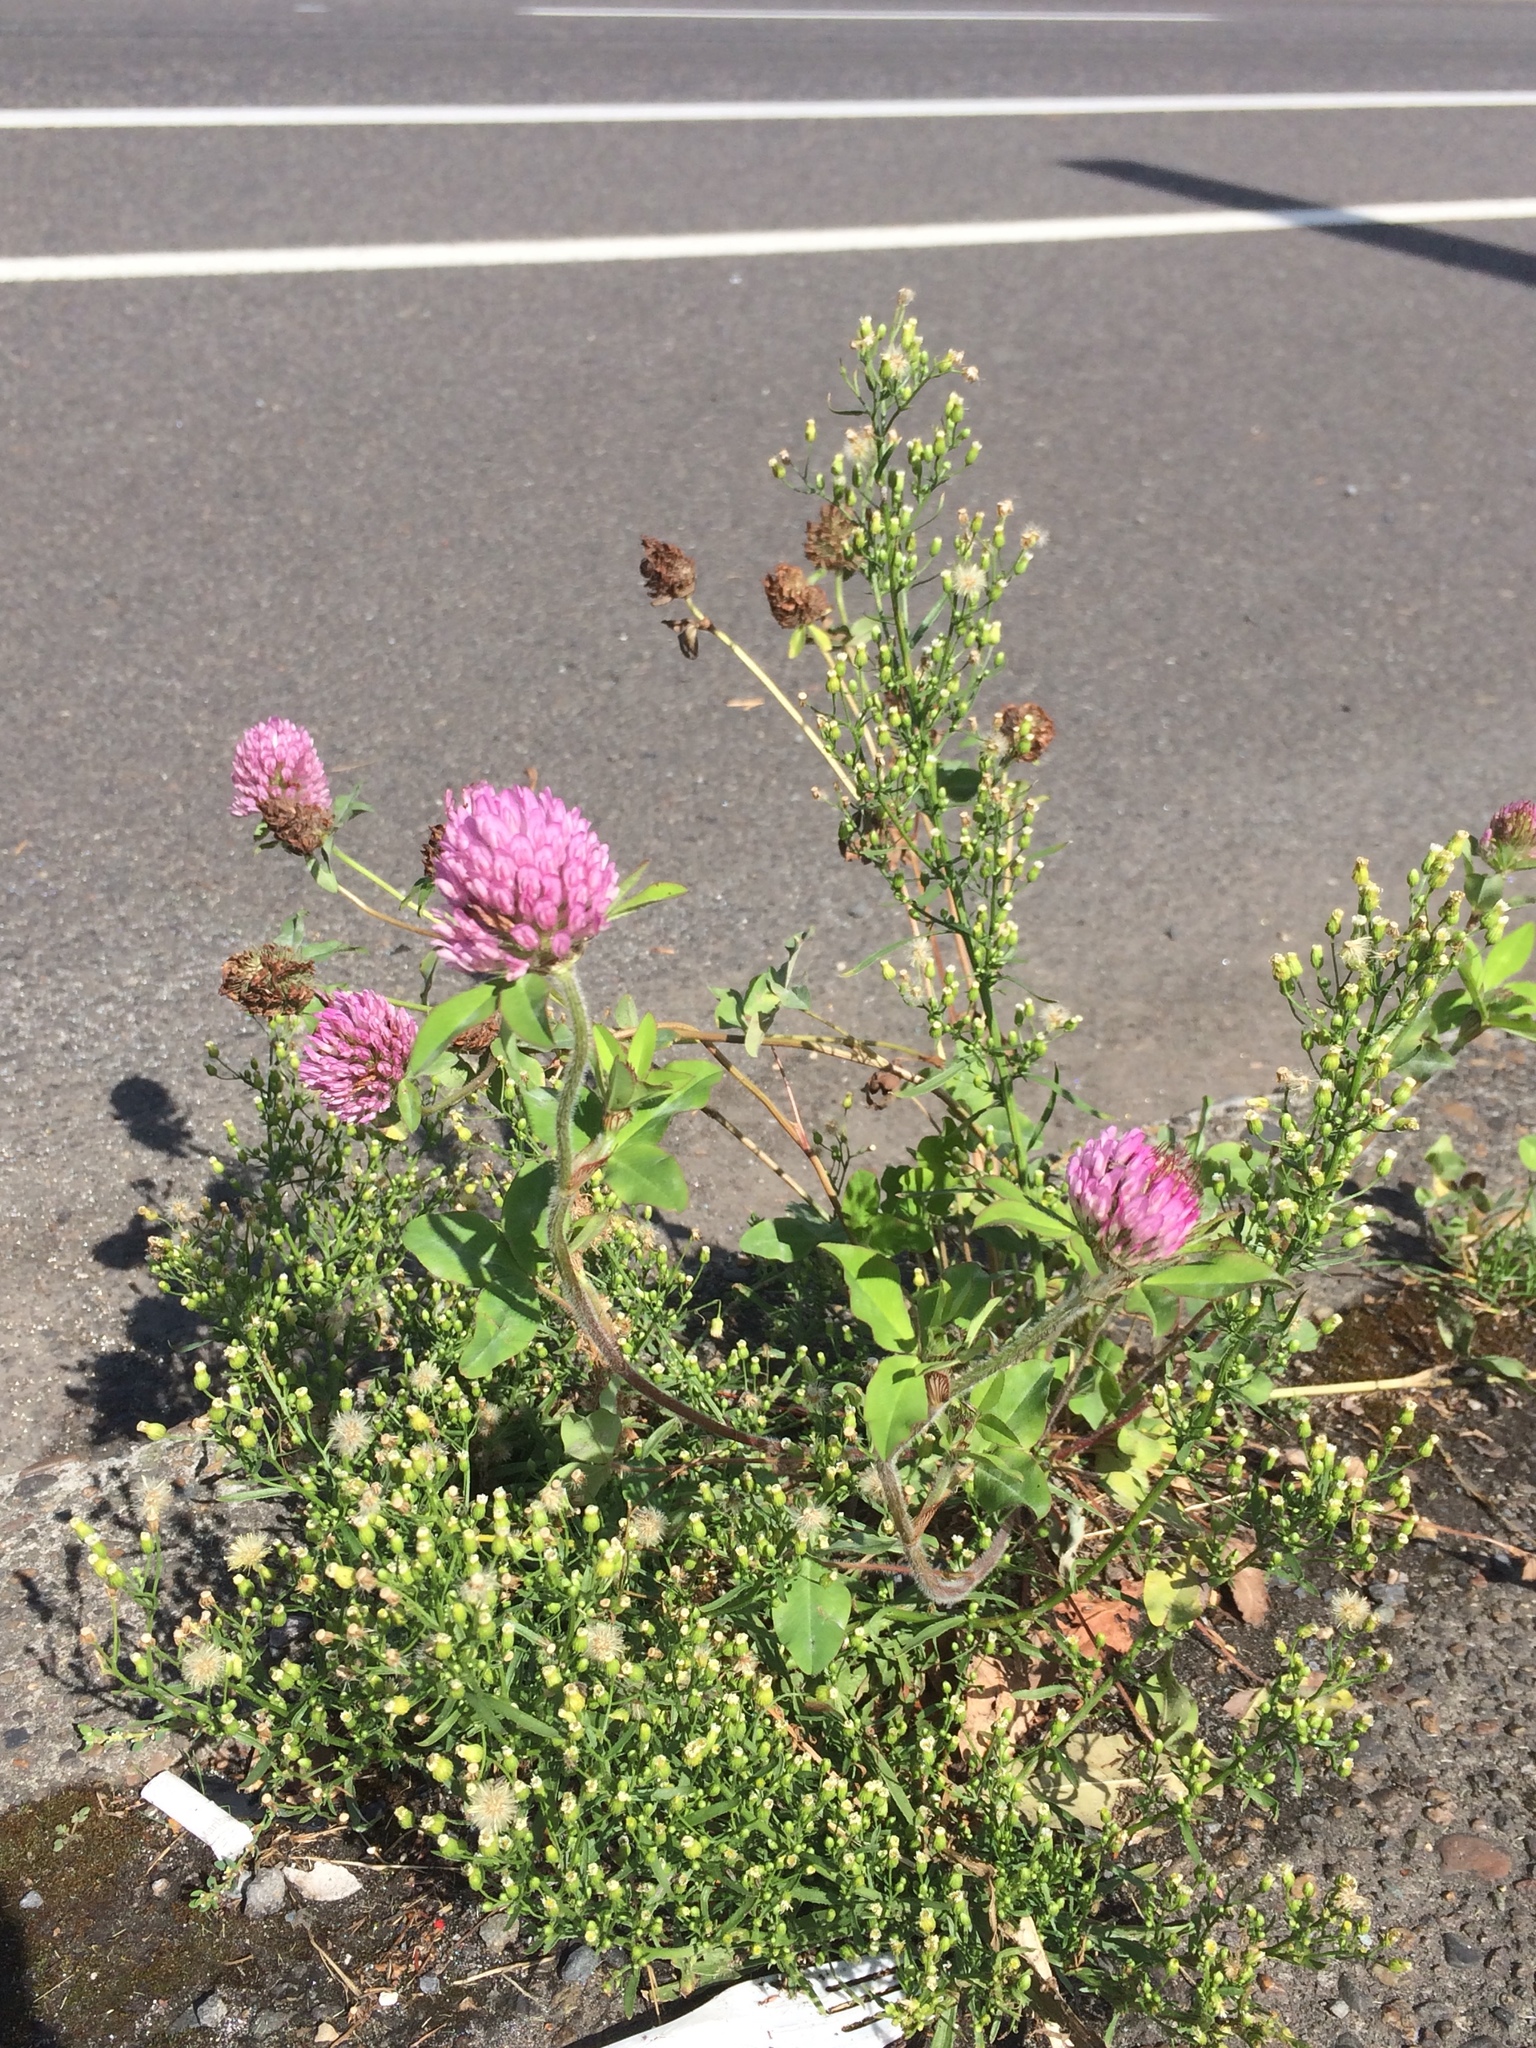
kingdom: Plantae
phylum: Tracheophyta
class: Magnoliopsida
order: Fabales
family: Fabaceae
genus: Trifolium
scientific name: Trifolium pratense
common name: Red clover
